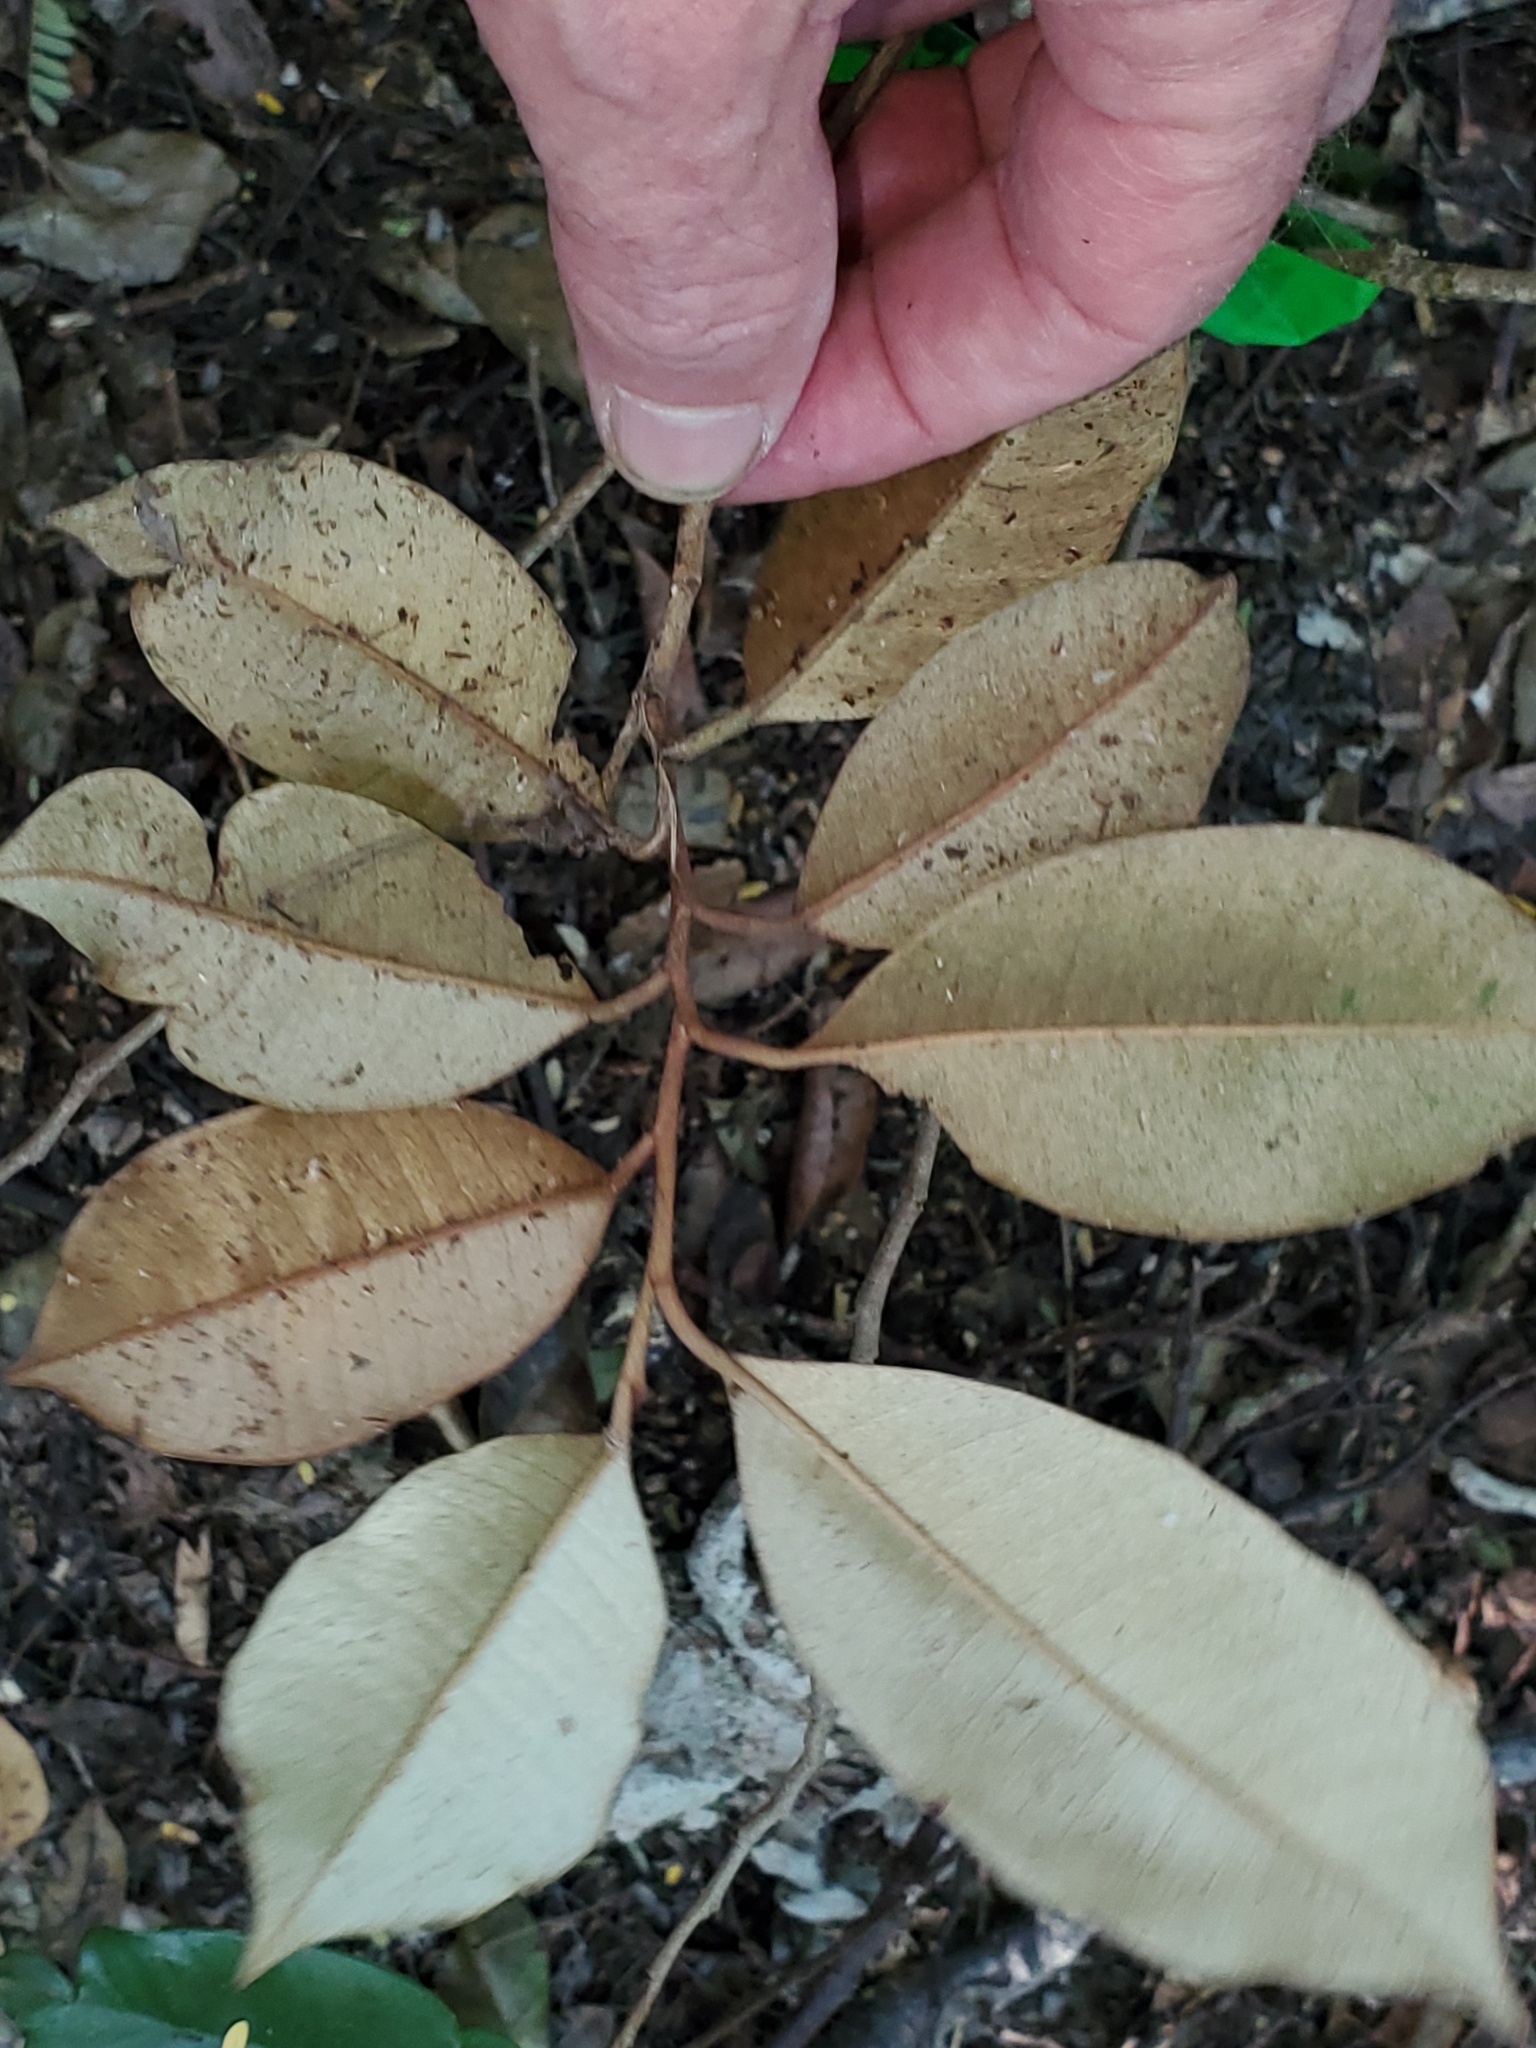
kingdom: Plantae
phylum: Tracheophyta
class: Magnoliopsida
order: Ericales
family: Sapotaceae
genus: Chrysophyllum
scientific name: Chrysophyllum oliviforme
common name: Satinleaf
